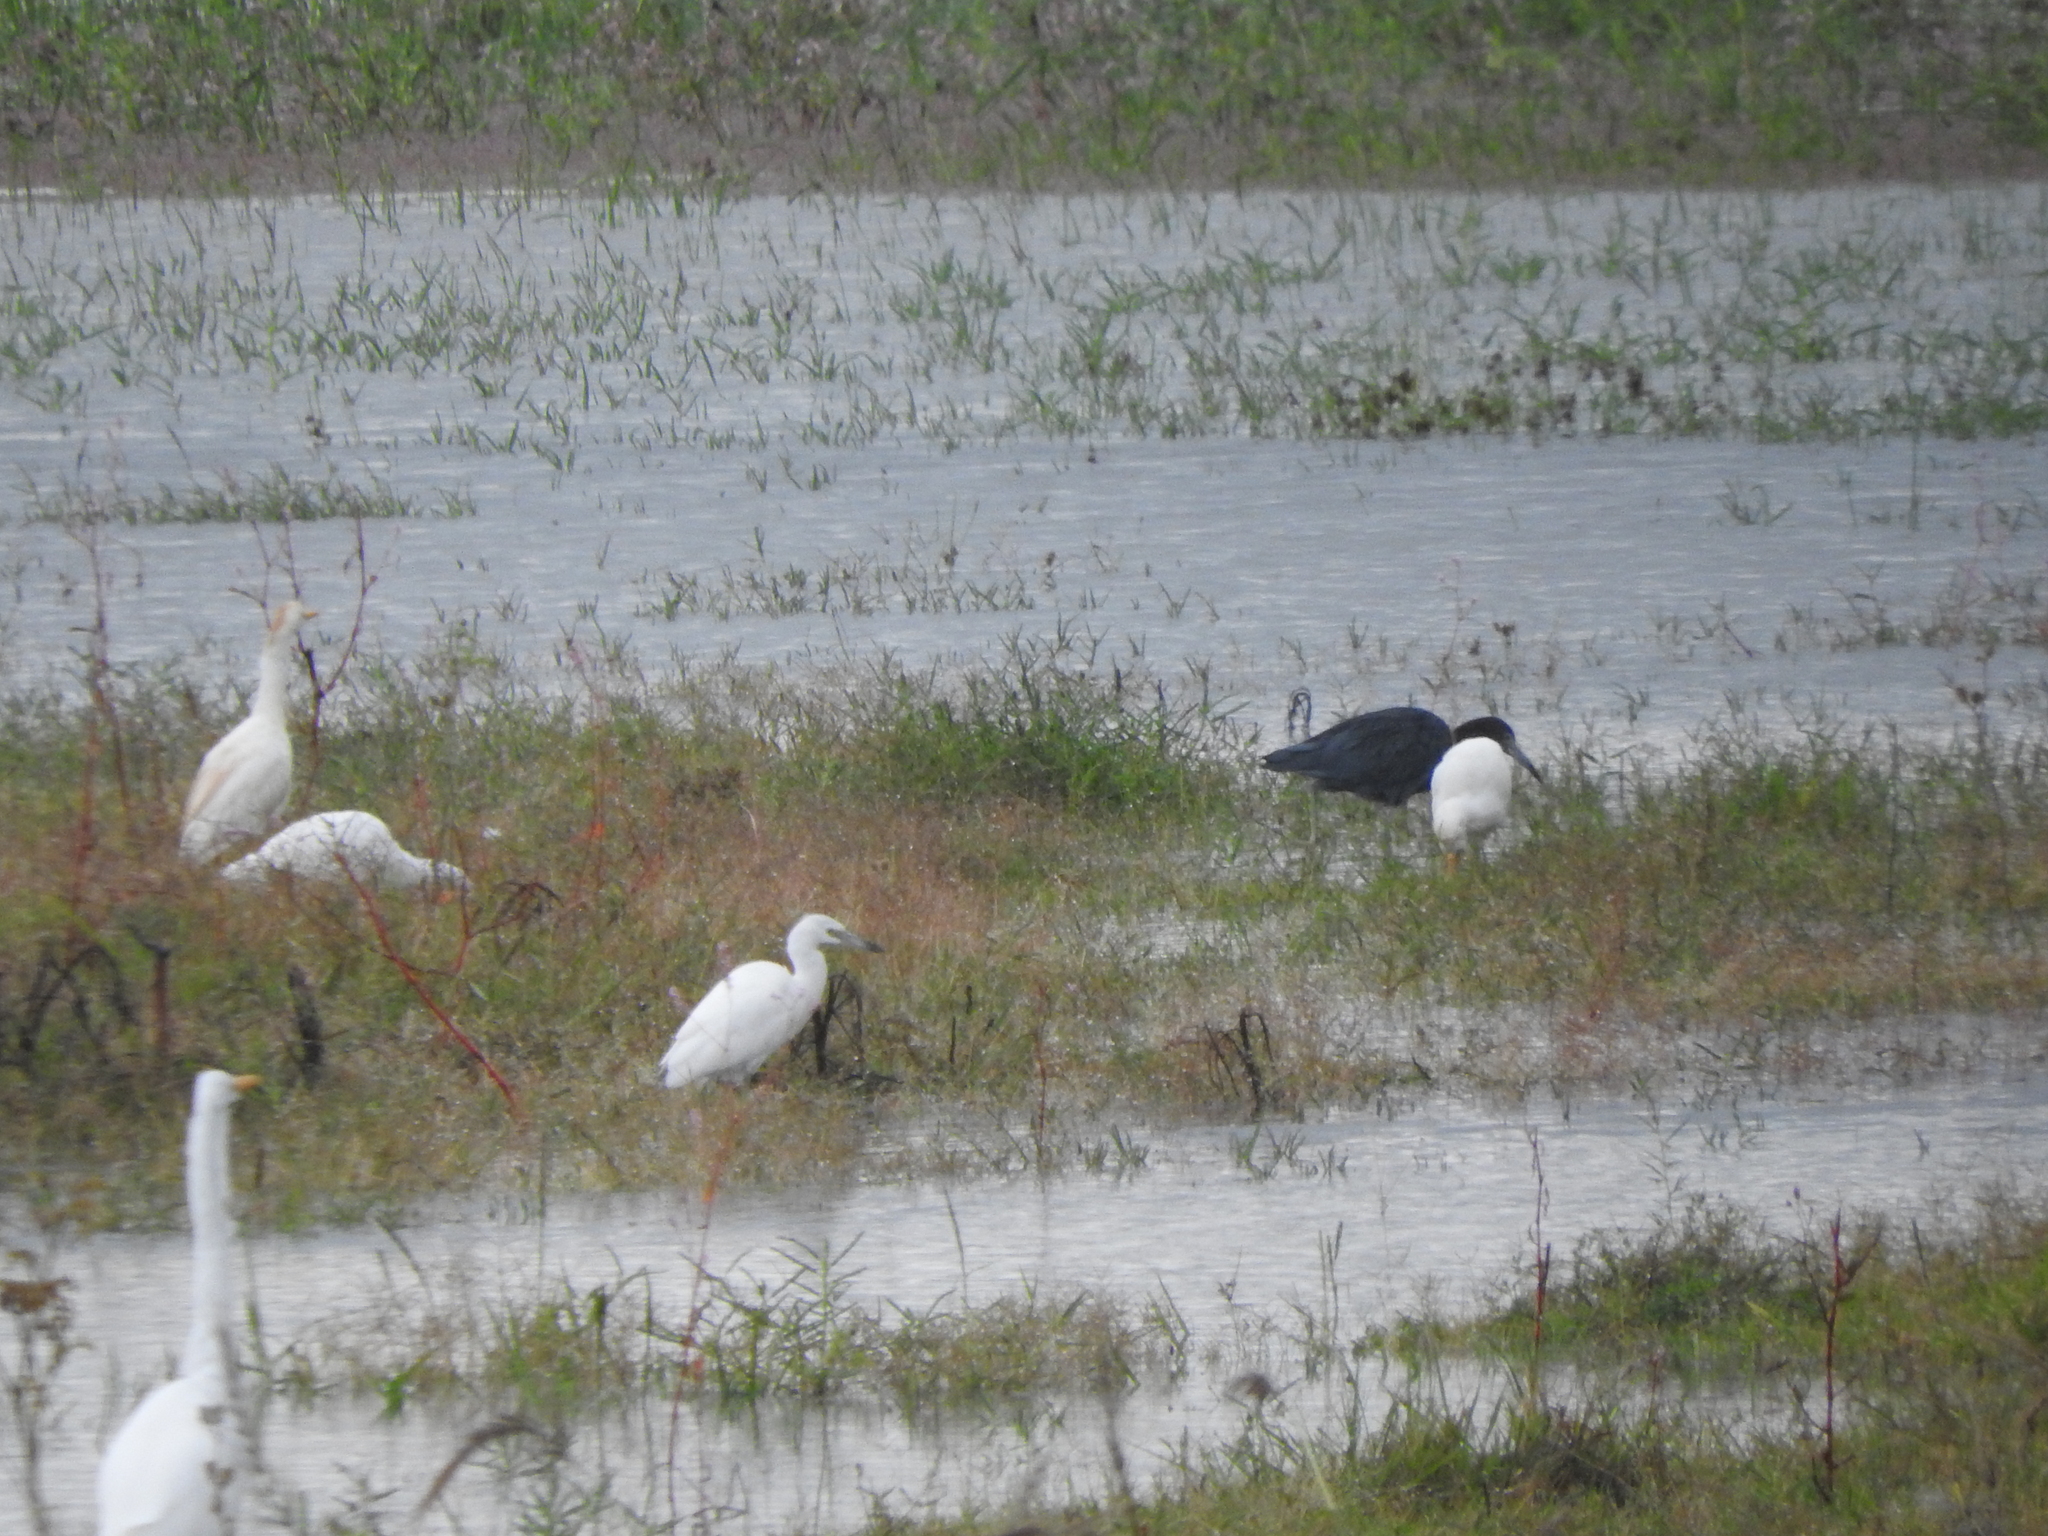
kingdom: Animalia
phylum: Chordata
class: Aves
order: Pelecaniformes
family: Ardeidae
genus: Ardea
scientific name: Ardea alba
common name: Great egret
